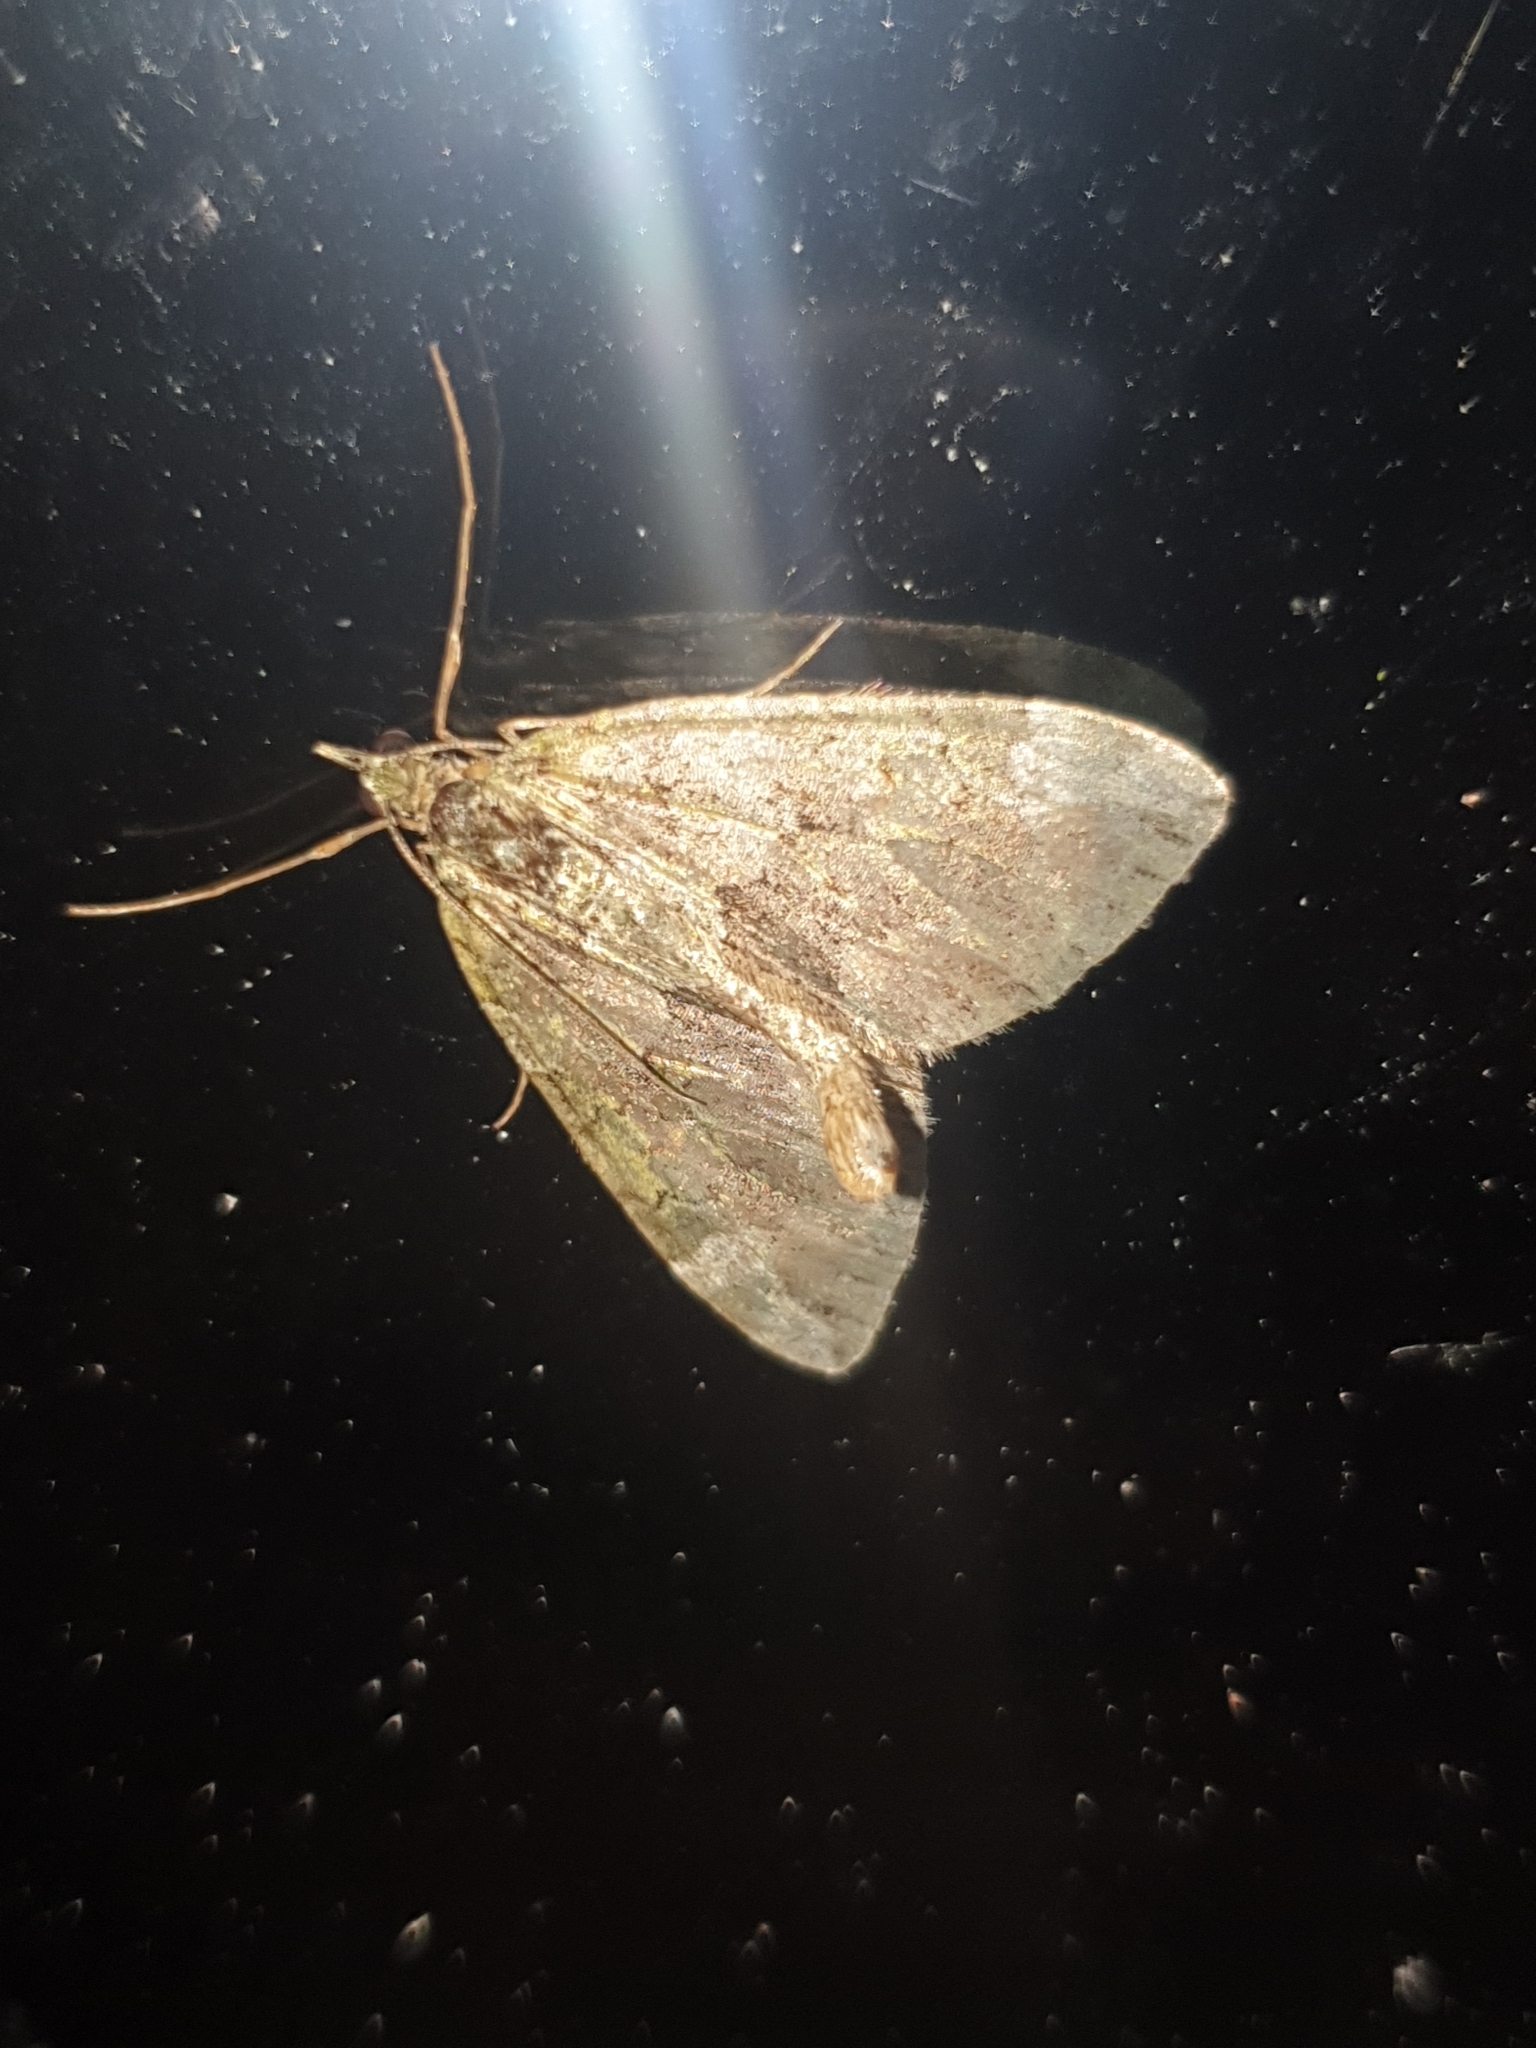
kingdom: Animalia
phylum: Arthropoda
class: Insecta
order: Lepidoptera
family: Geometridae
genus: Thera
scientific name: Thera juniperata
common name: Juniper carpet
